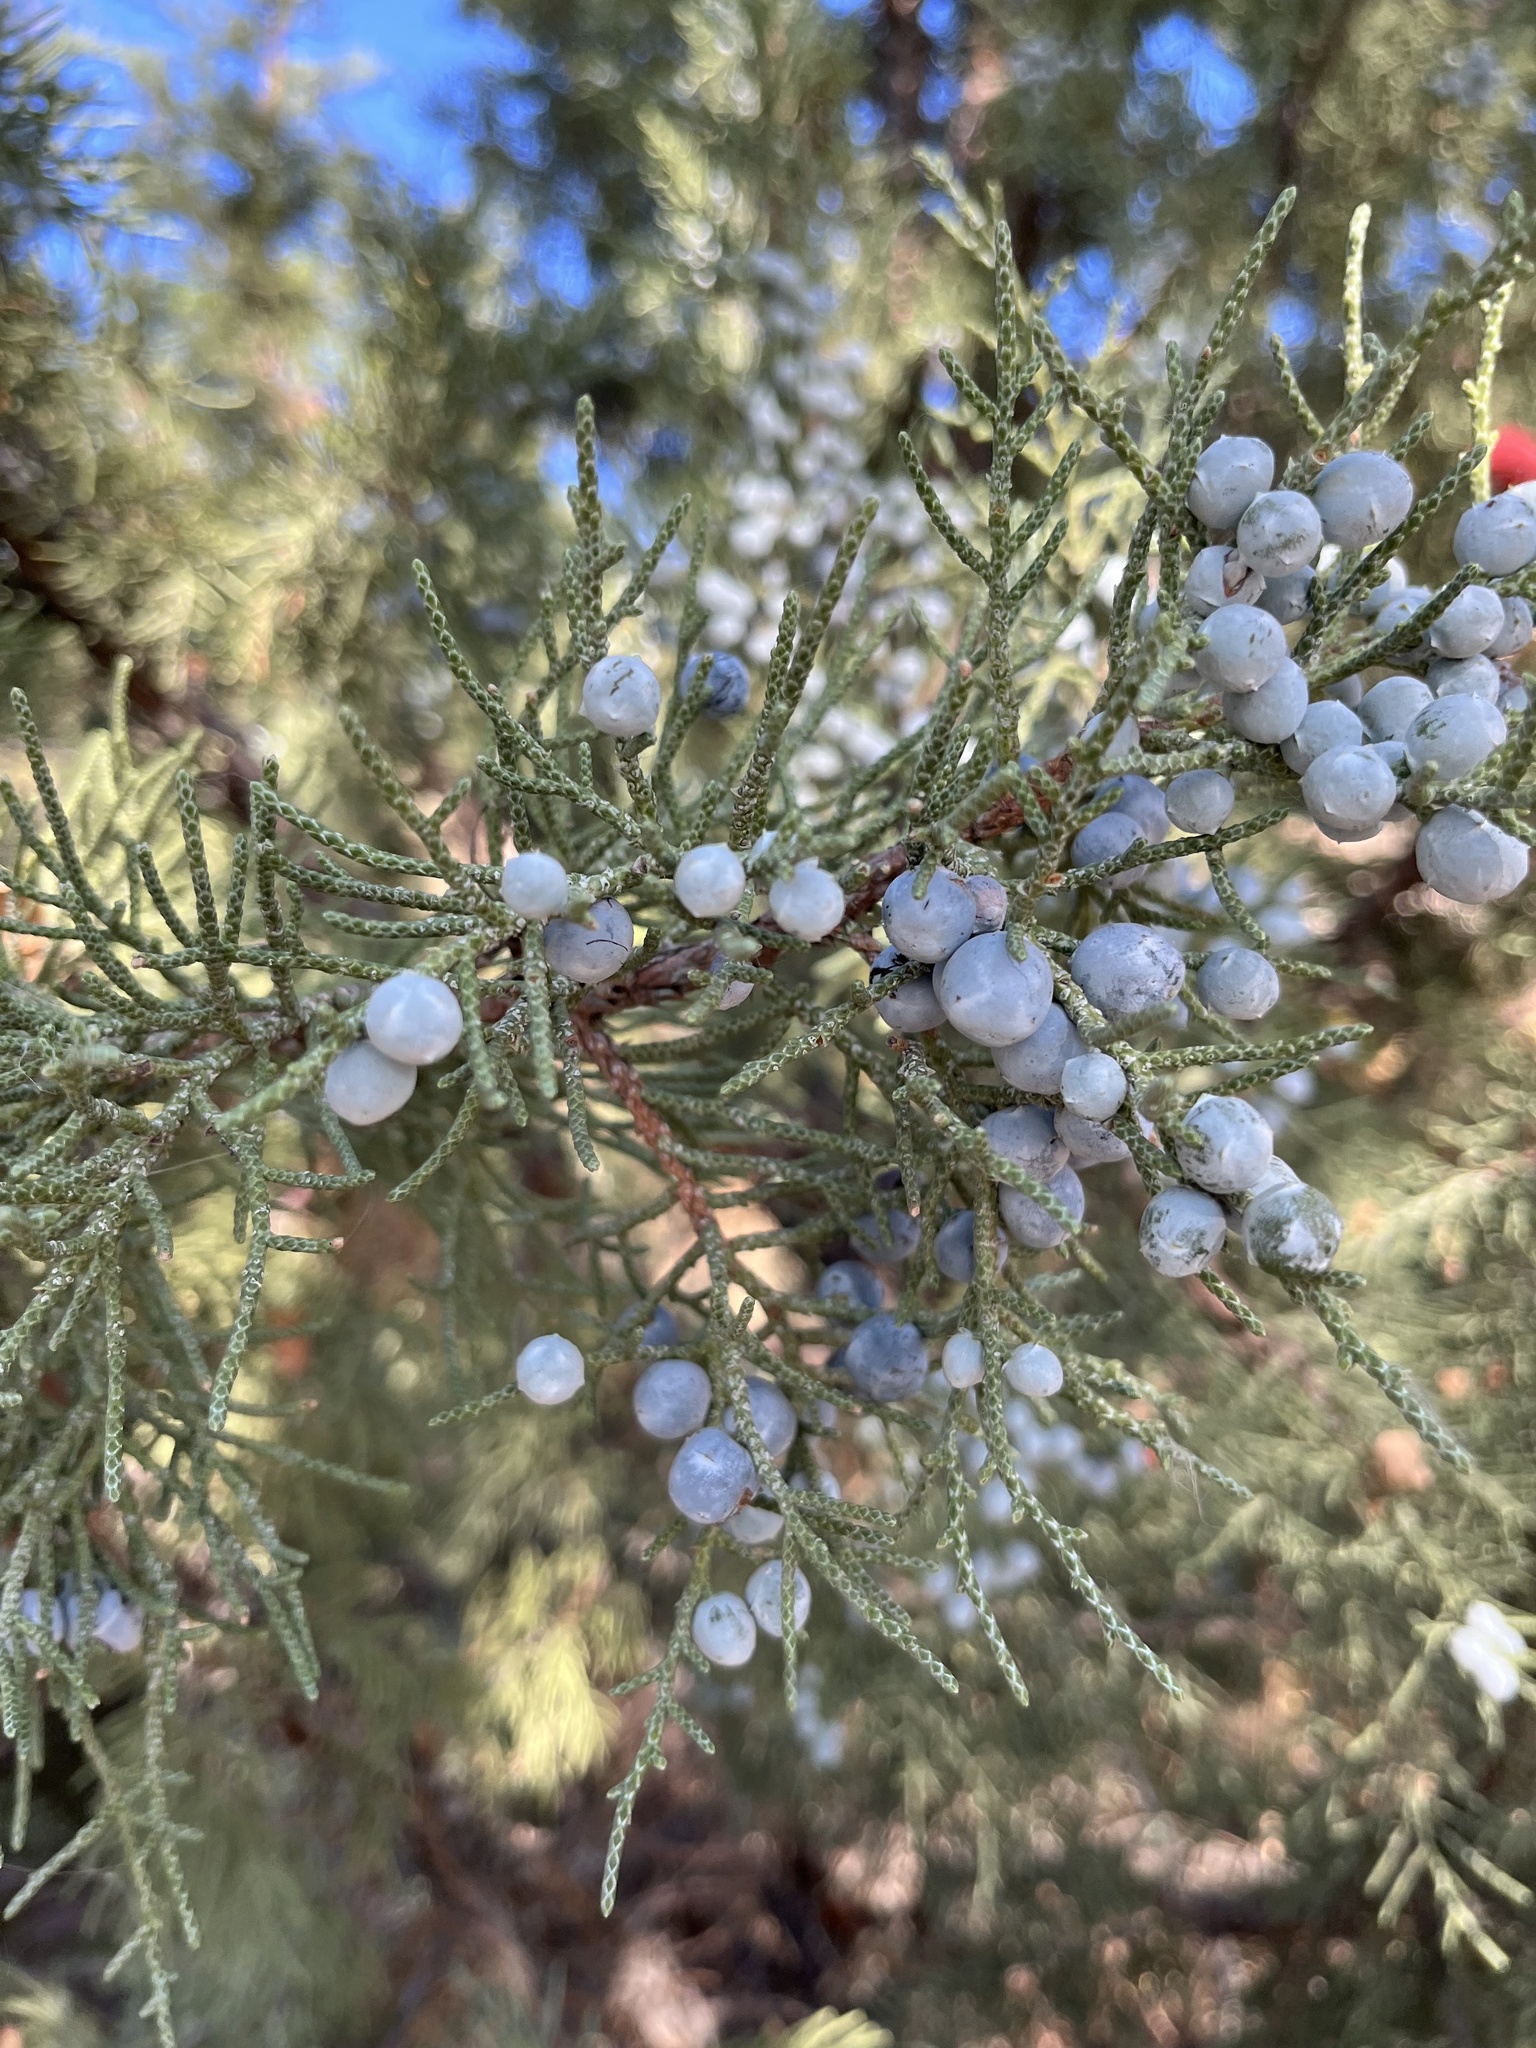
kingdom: Plantae
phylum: Tracheophyta
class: Pinopsida
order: Pinales
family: Cupressaceae
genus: Juniperus
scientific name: Juniperus scopulorum
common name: Rocky mountain juniper
